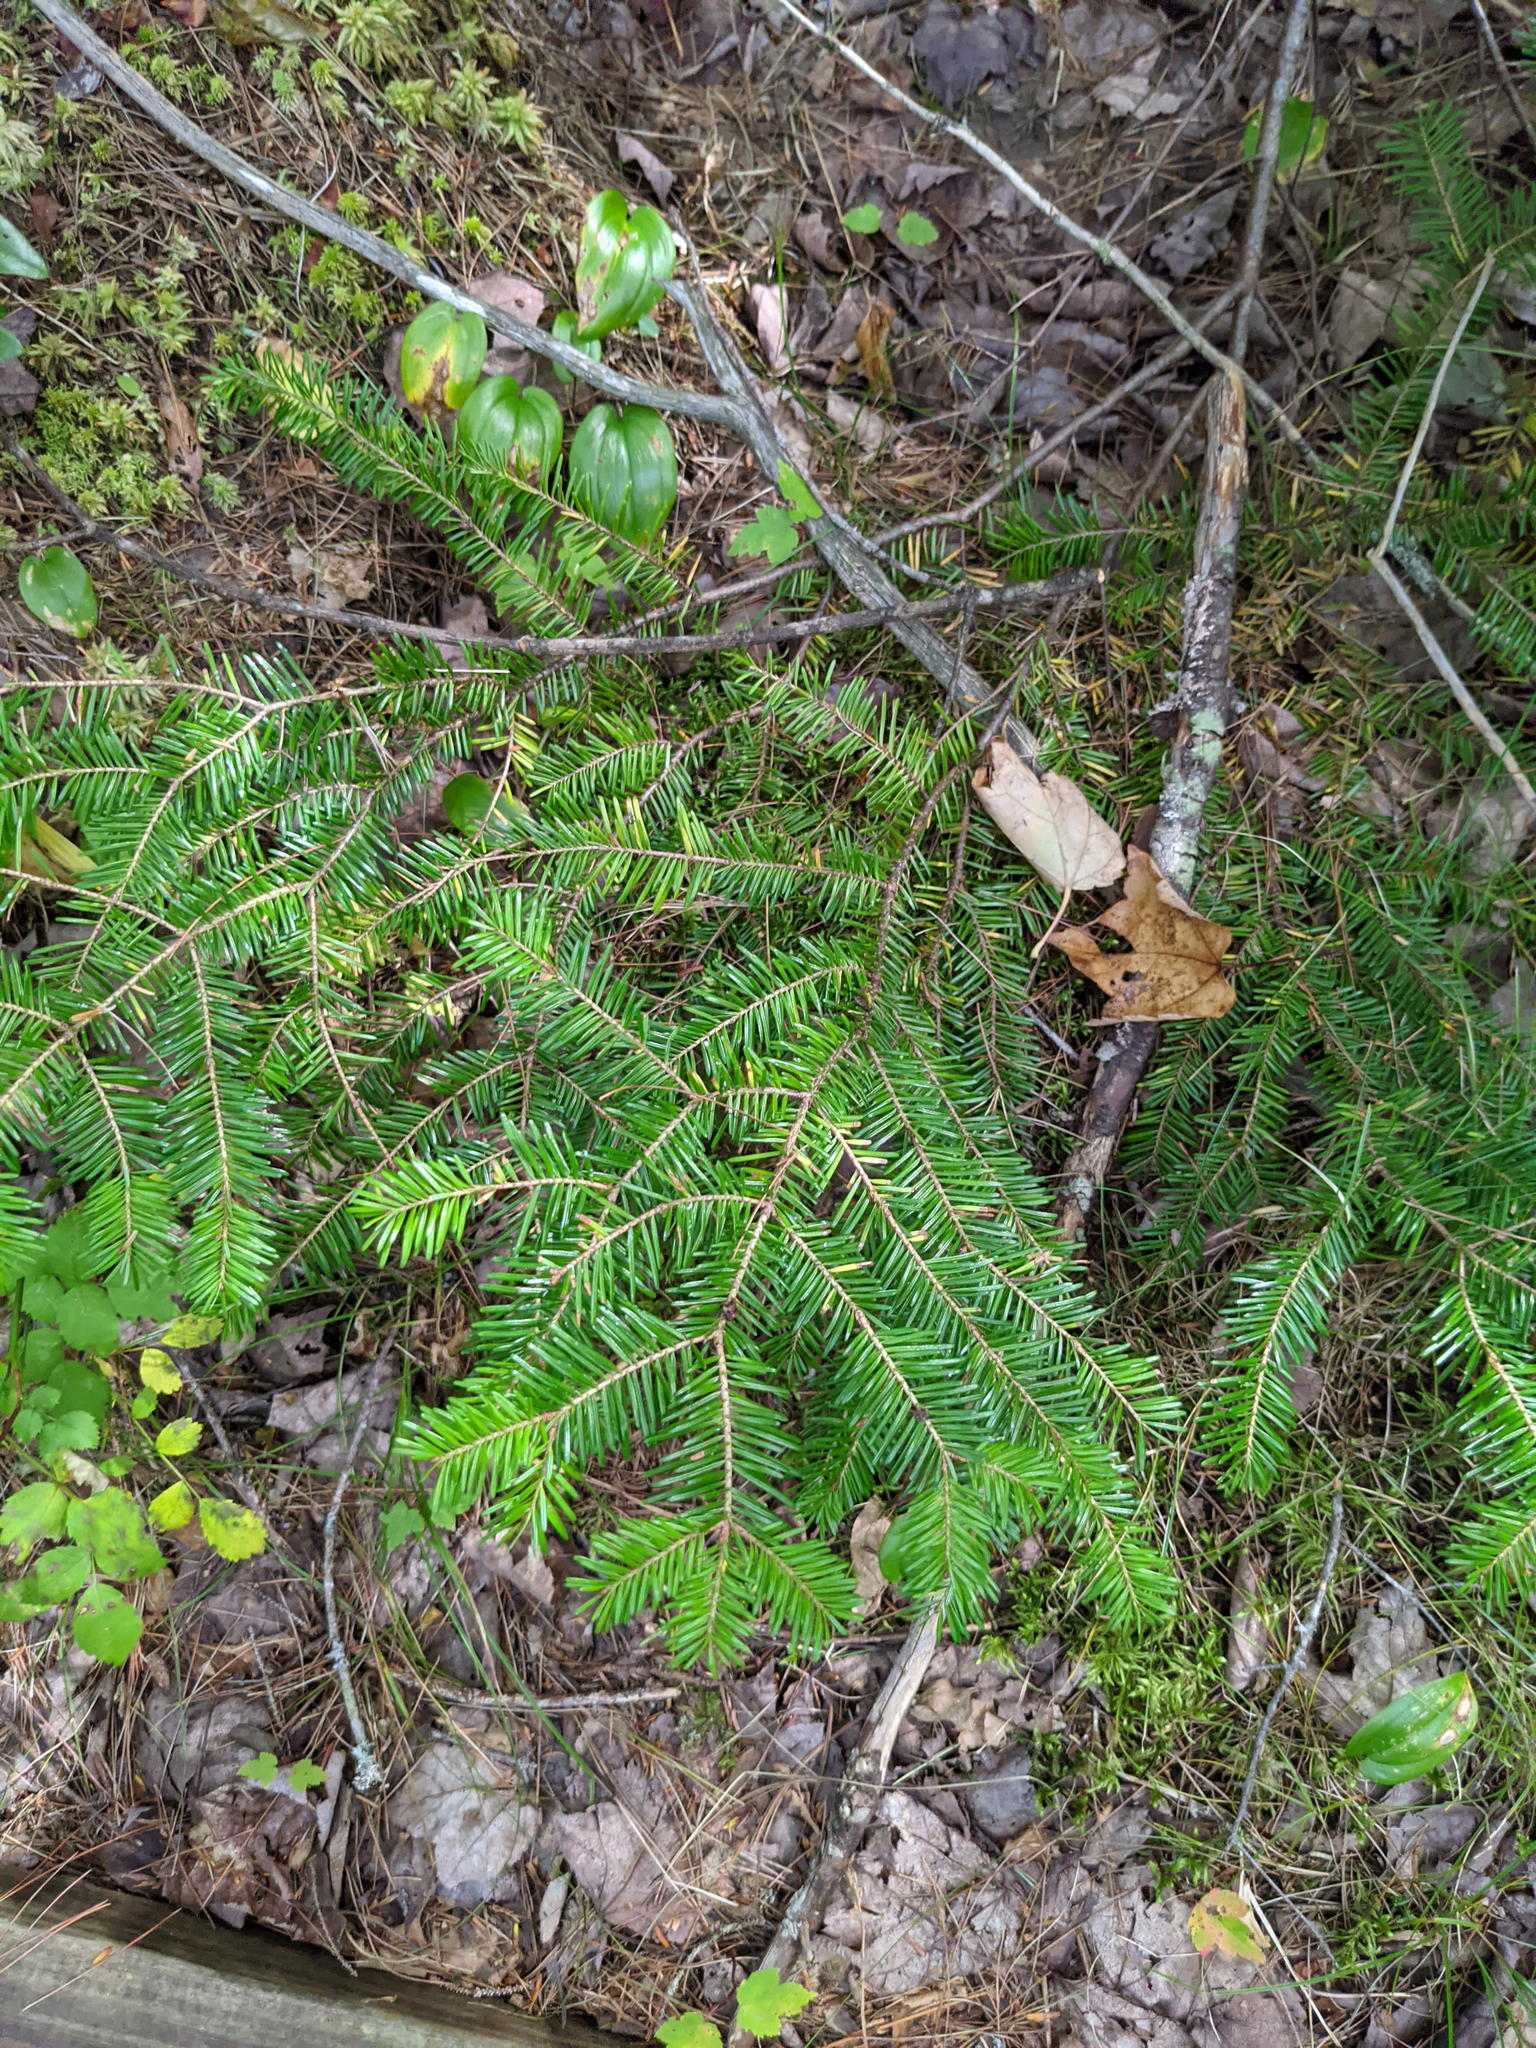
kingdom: Plantae
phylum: Tracheophyta
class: Pinopsida
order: Pinales
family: Pinaceae
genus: Abies
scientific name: Abies balsamea
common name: Balsam fir
